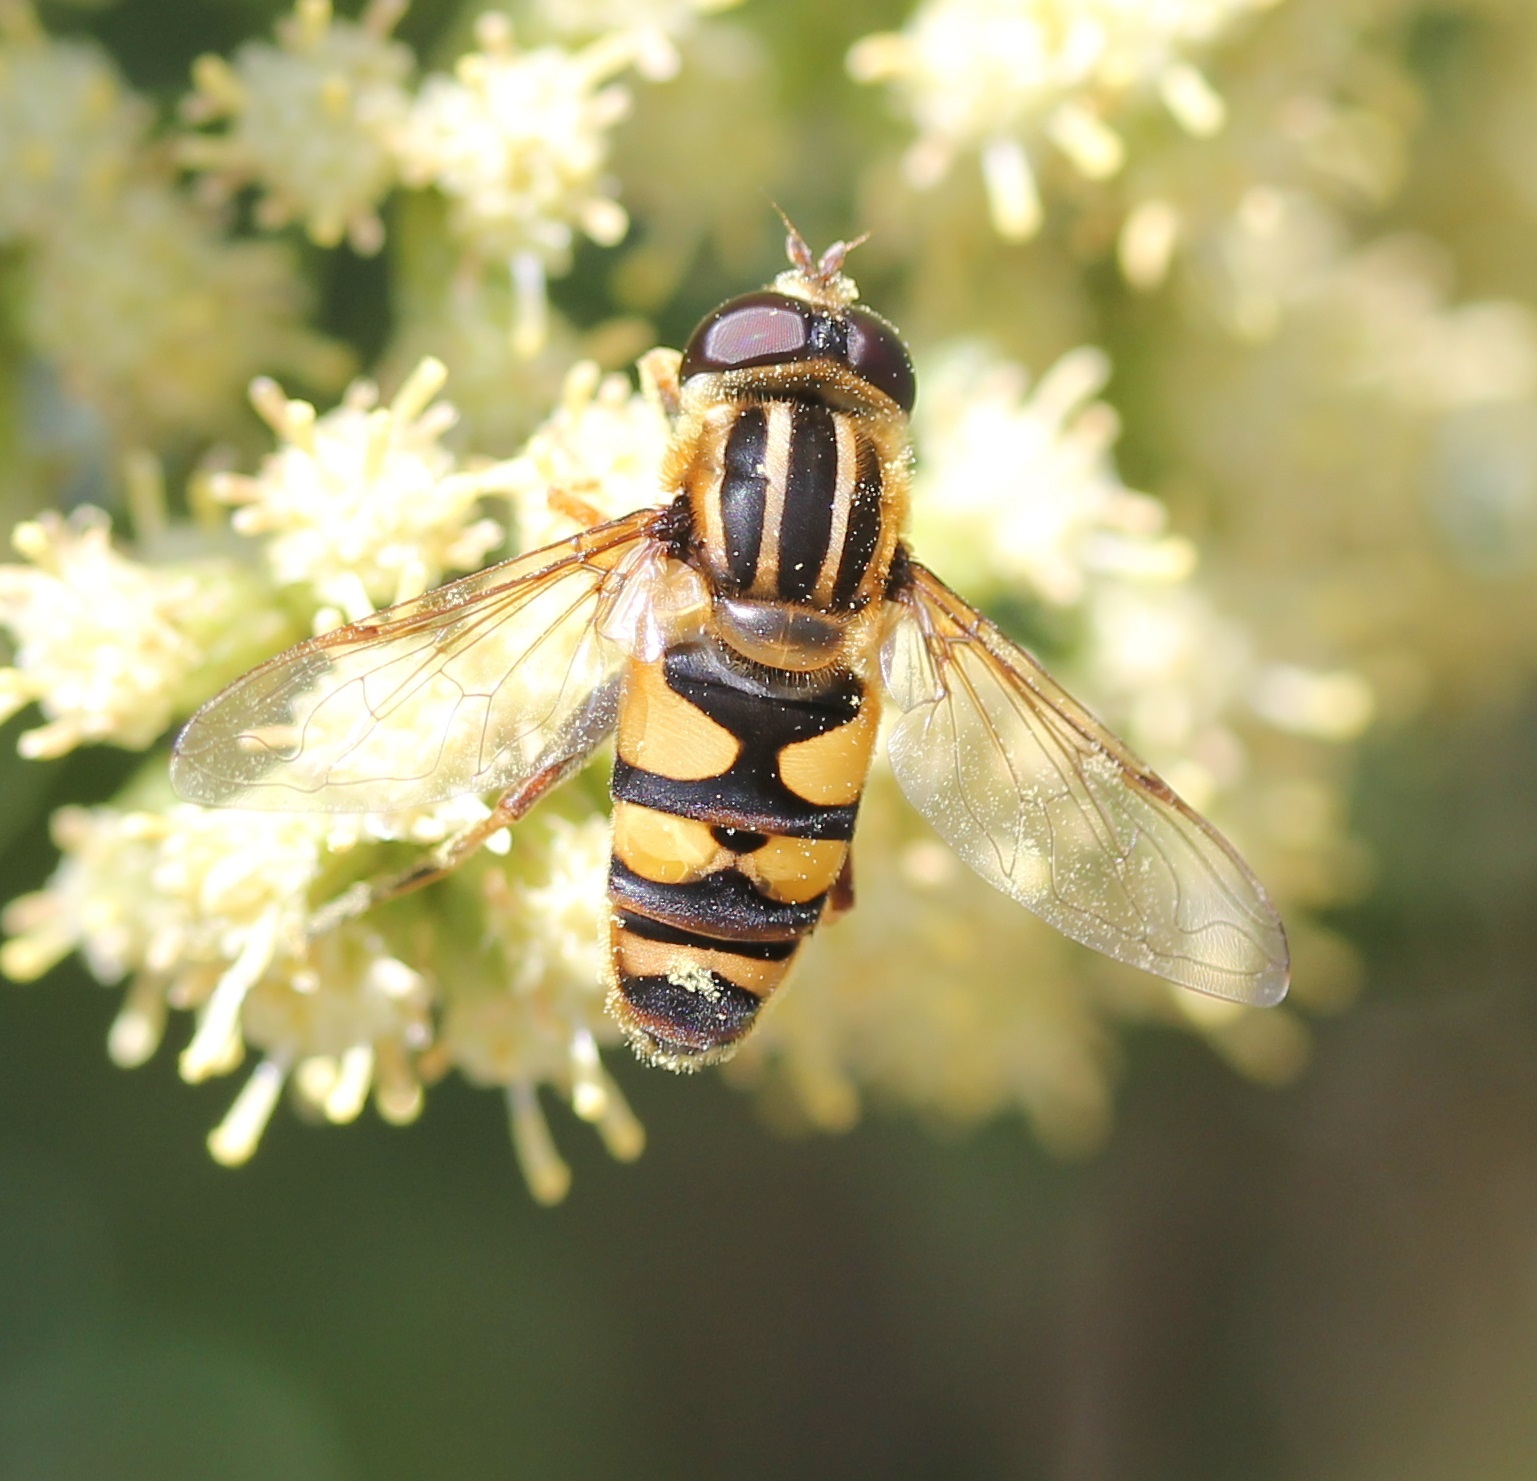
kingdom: Animalia
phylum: Arthropoda
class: Insecta
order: Diptera
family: Syrphidae
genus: Helophilus
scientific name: Helophilus fasciatus
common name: Narrow-headed marsh fly
